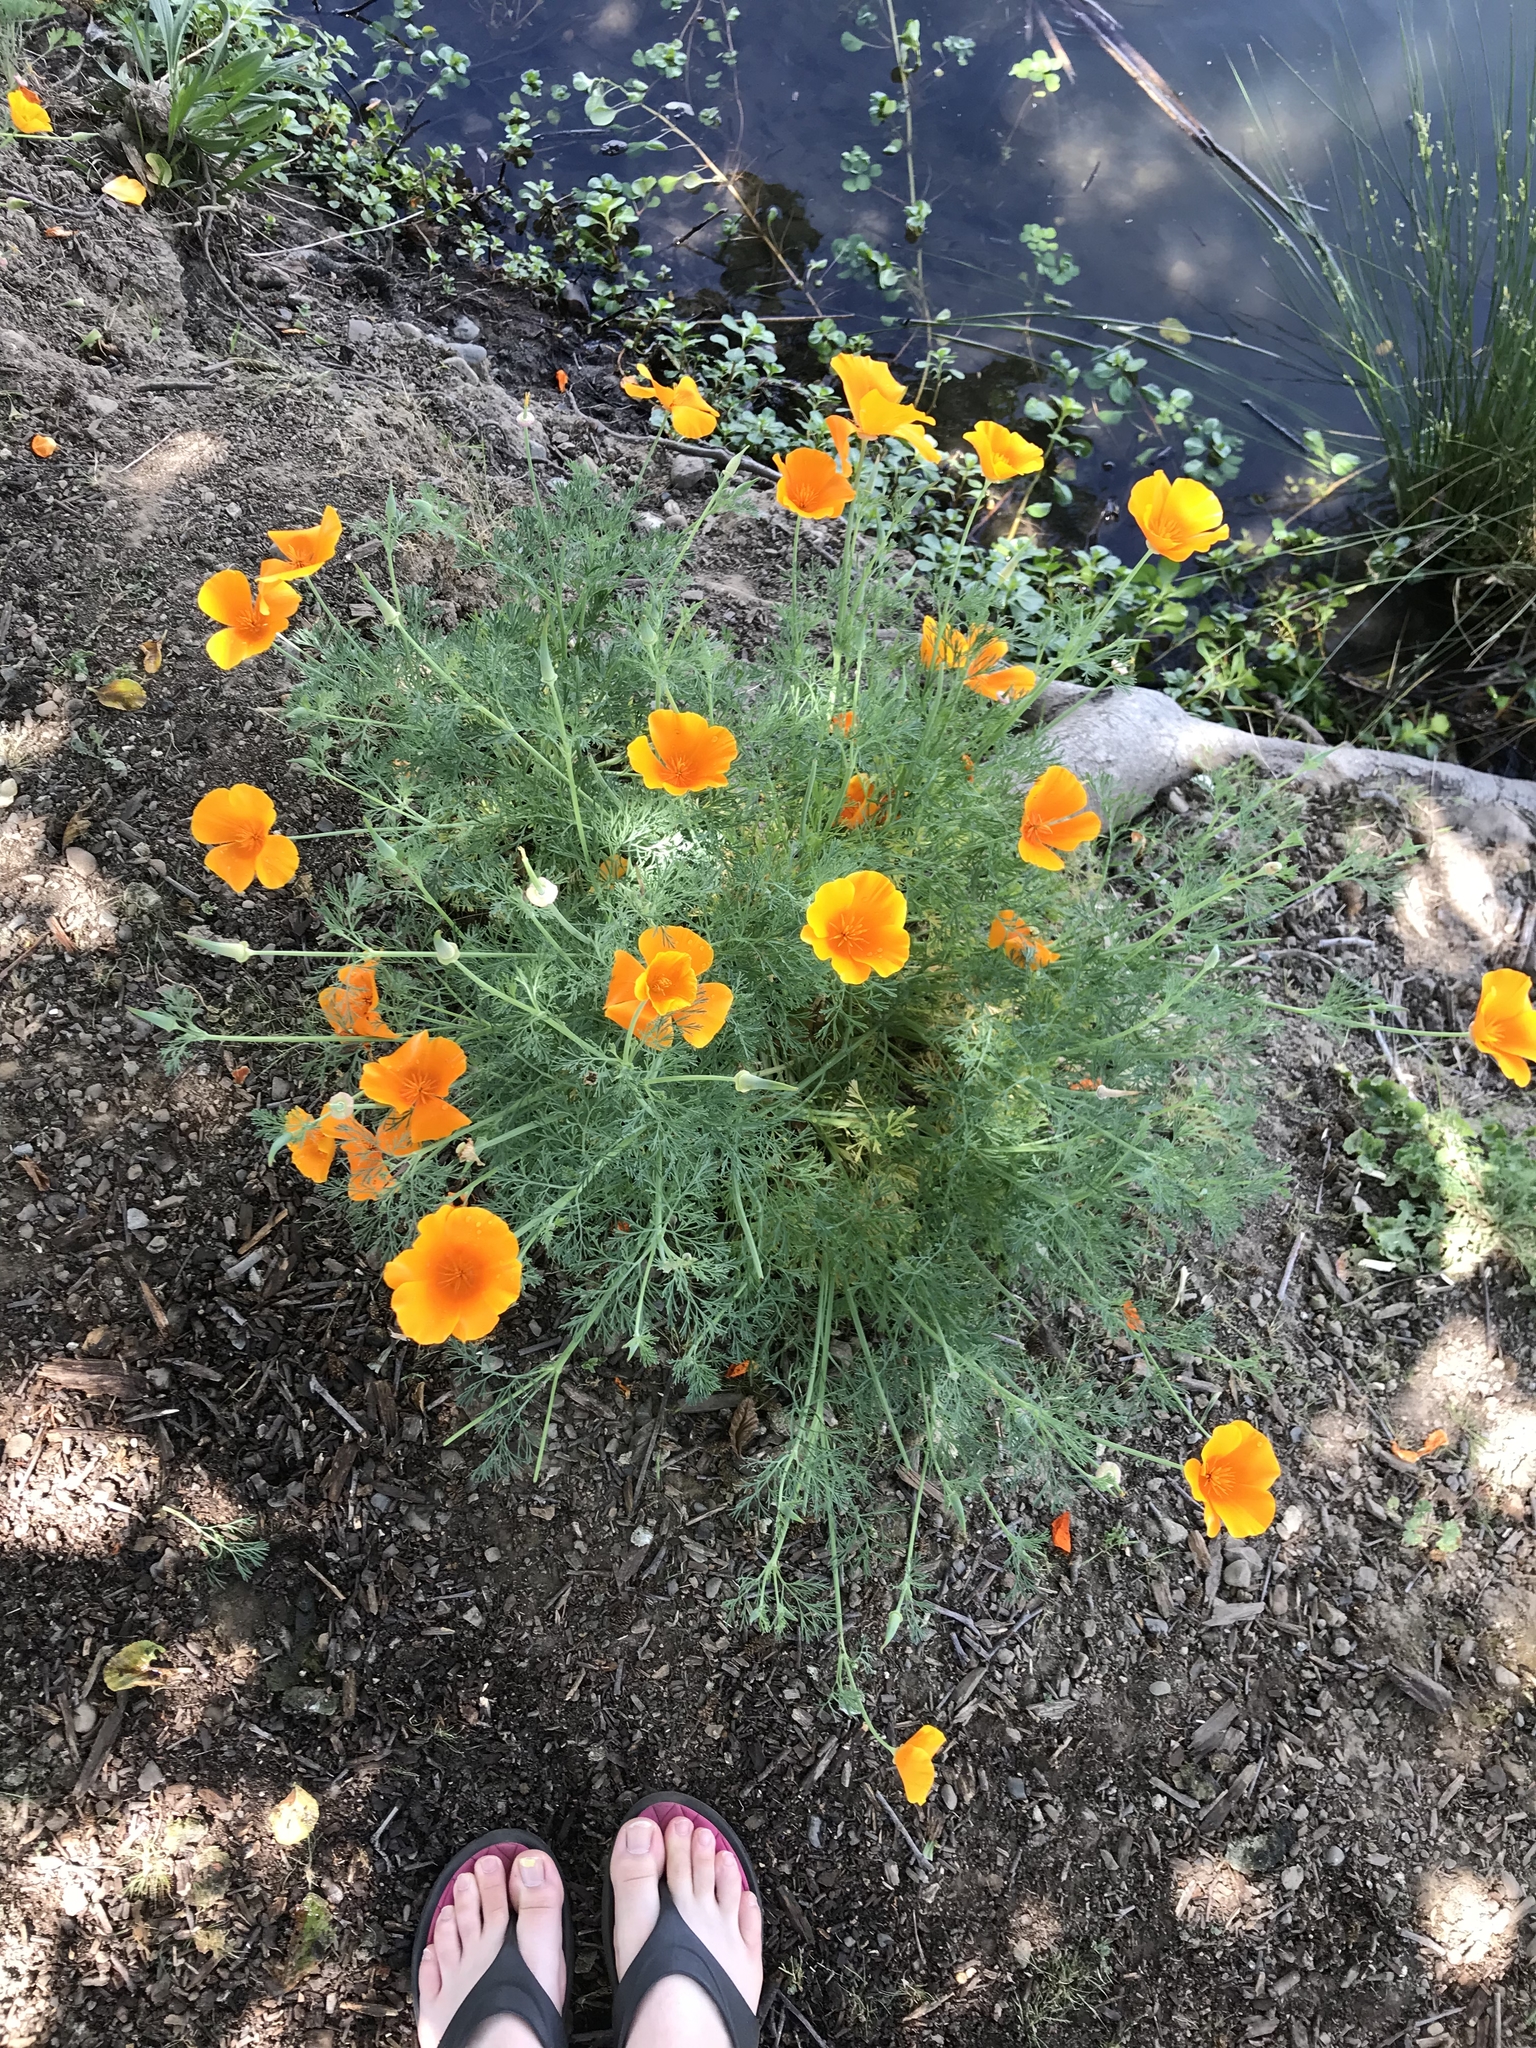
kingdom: Plantae
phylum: Tracheophyta
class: Magnoliopsida
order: Ranunculales
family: Papaveraceae
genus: Eschscholzia
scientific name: Eschscholzia californica
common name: California poppy
